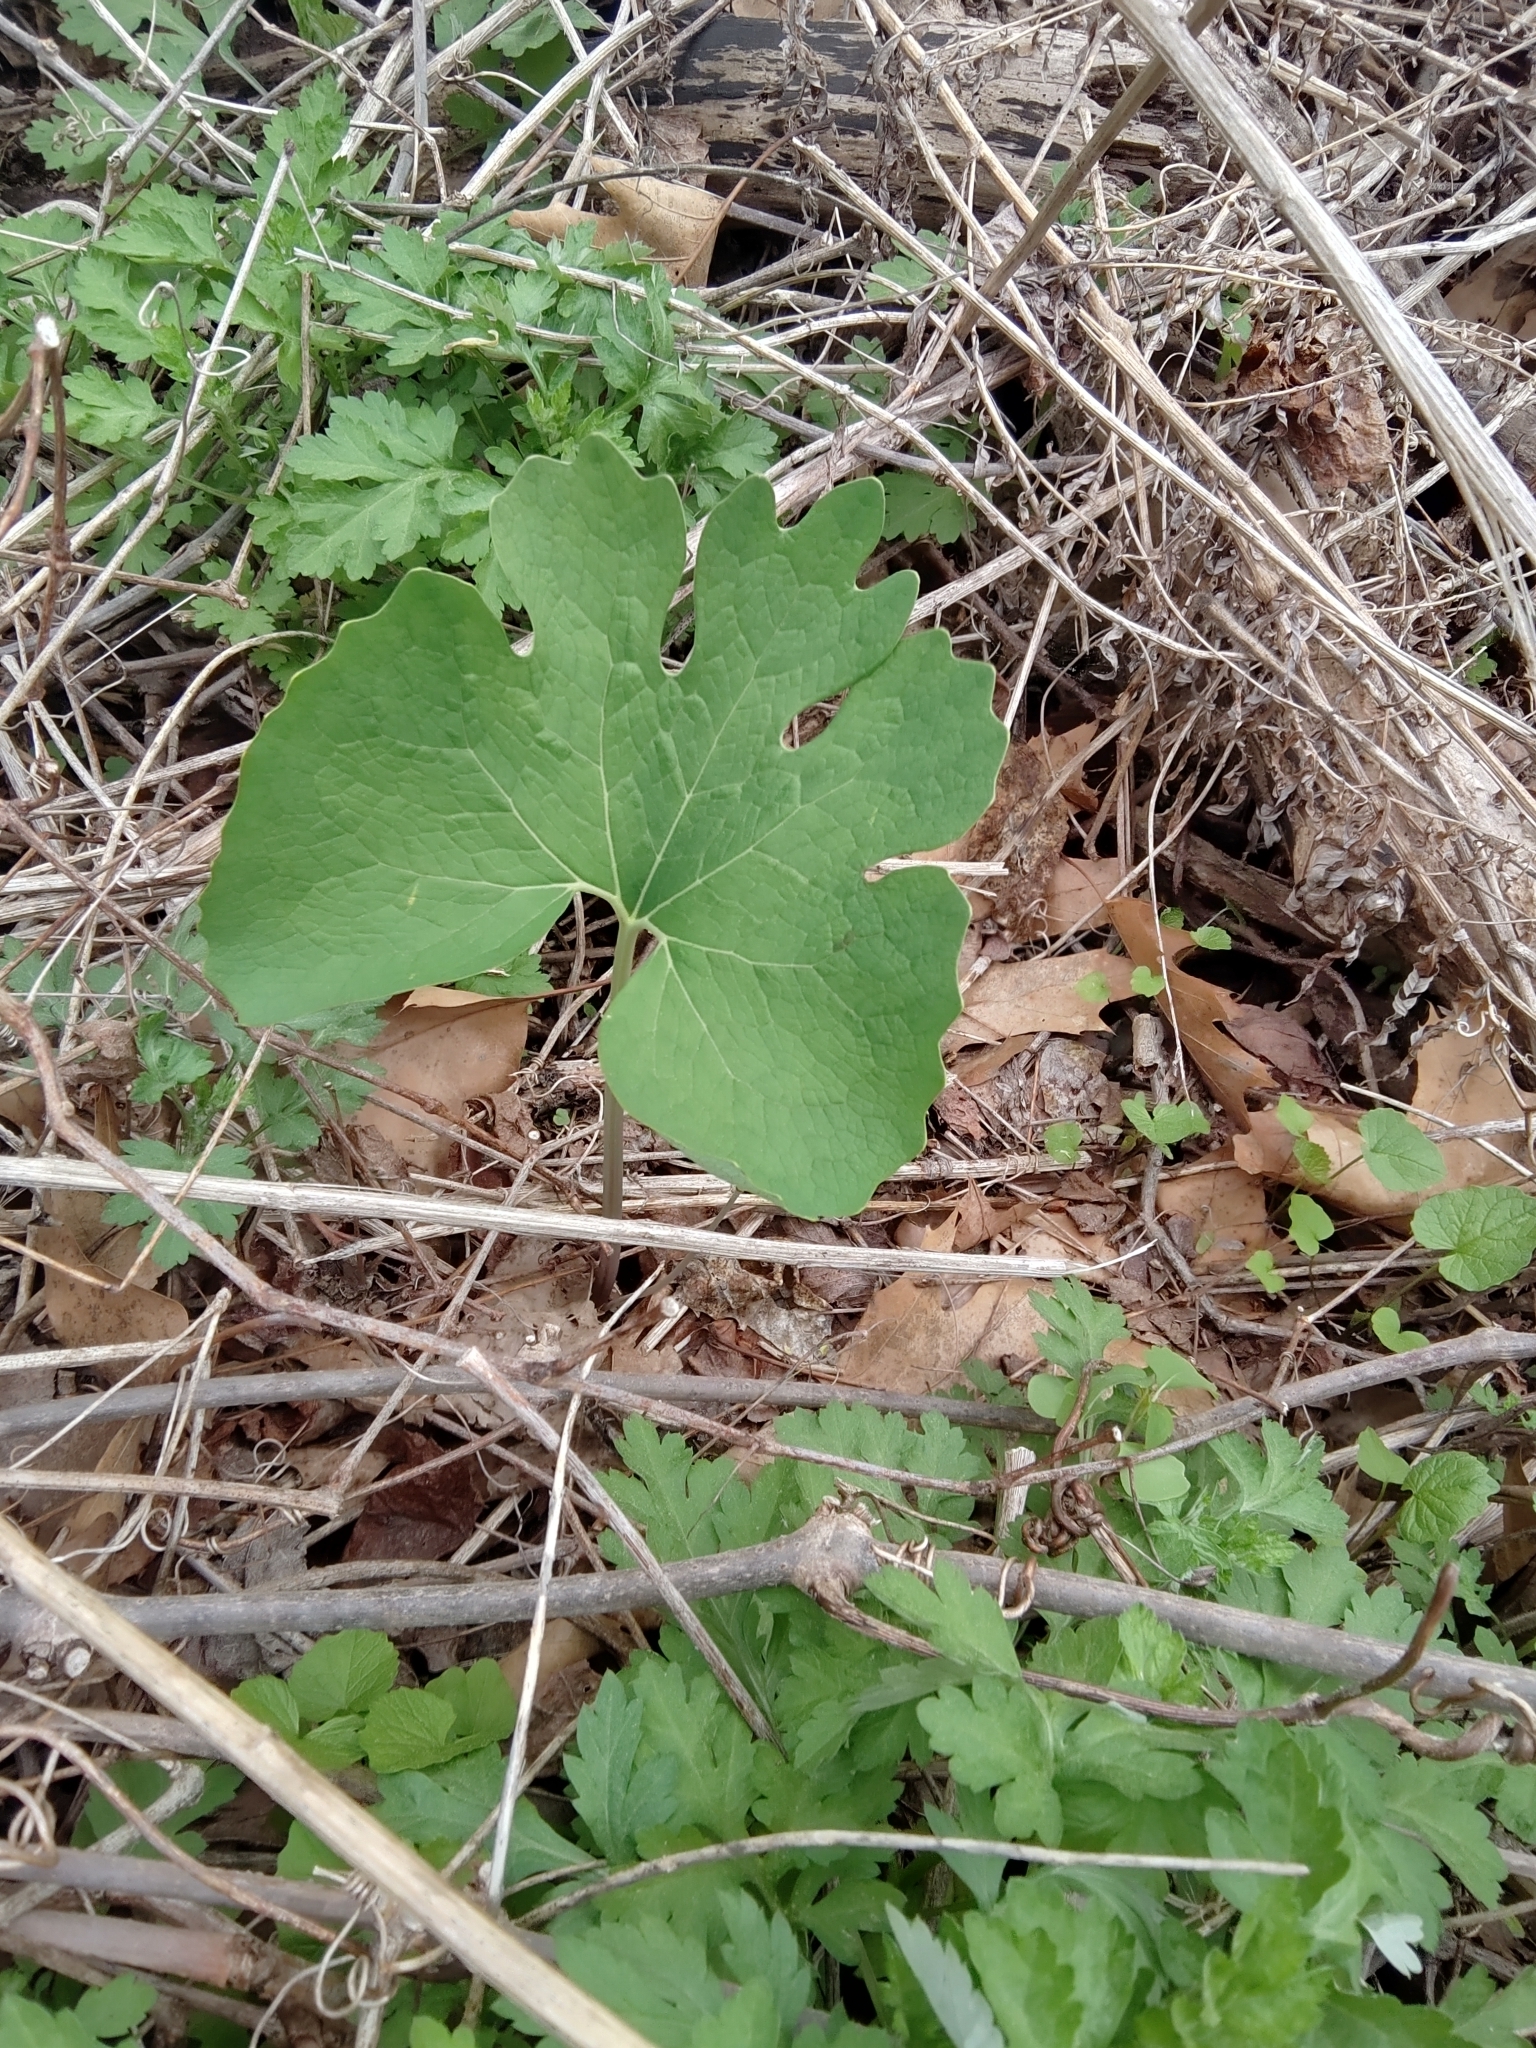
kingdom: Plantae
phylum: Tracheophyta
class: Magnoliopsida
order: Ranunculales
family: Papaveraceae
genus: Sanguinaria
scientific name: Sanguinaria canadensis
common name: Bloodroot
